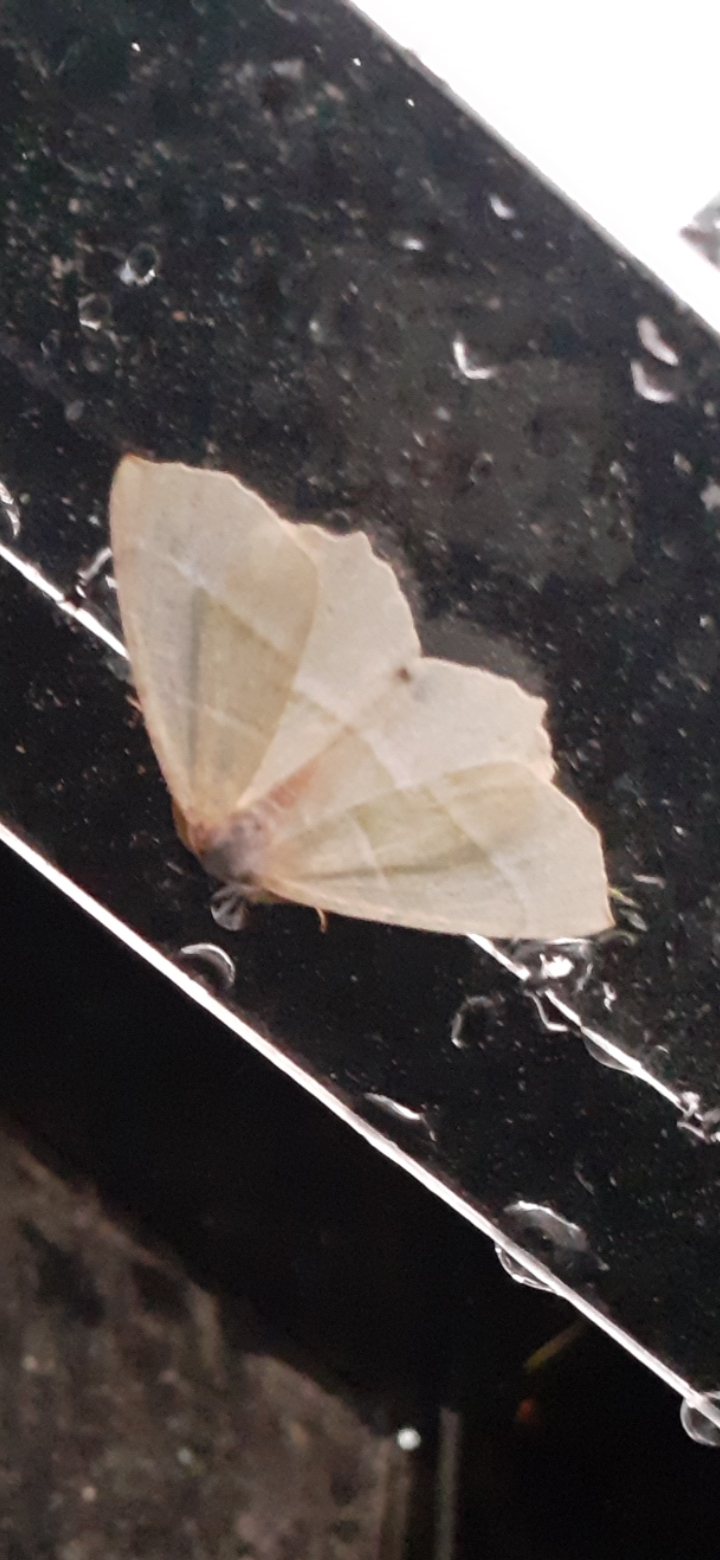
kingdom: Animalia
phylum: Arthropoda
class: Insecta
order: Lepidoptera
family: Geometridae
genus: Campaea
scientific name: Campaea margaritaria
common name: Light emerald
